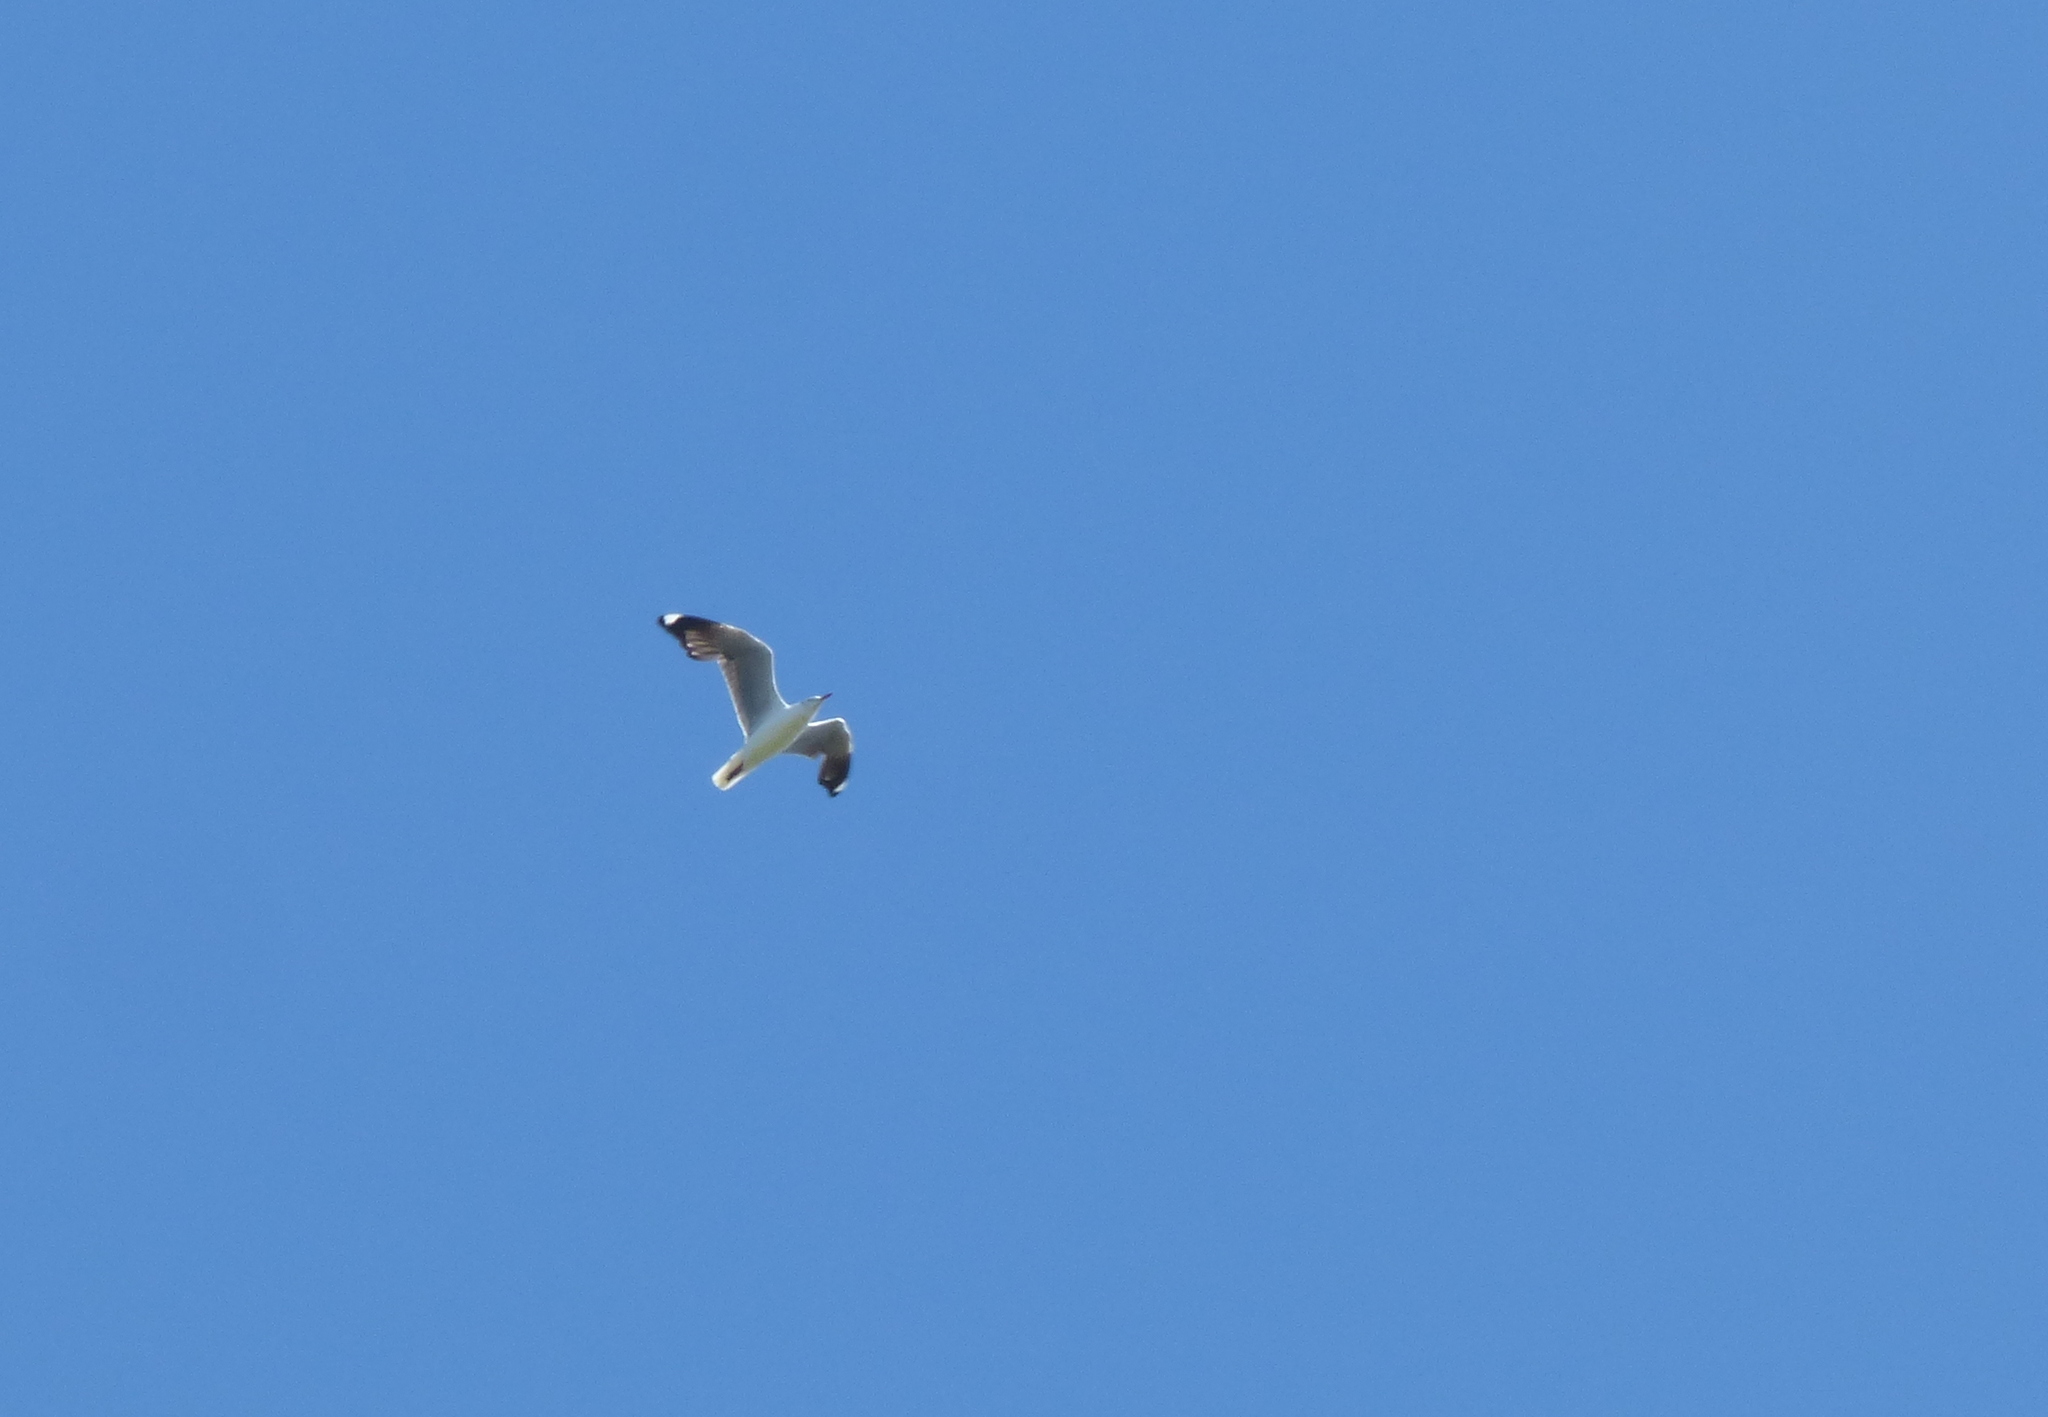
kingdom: Animalia
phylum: Chordata
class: Aves
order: Charadriiformes
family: Laridae
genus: Chroicocephalus
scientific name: Chroicocephalus cirrocephalus
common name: Grey-headed gull
